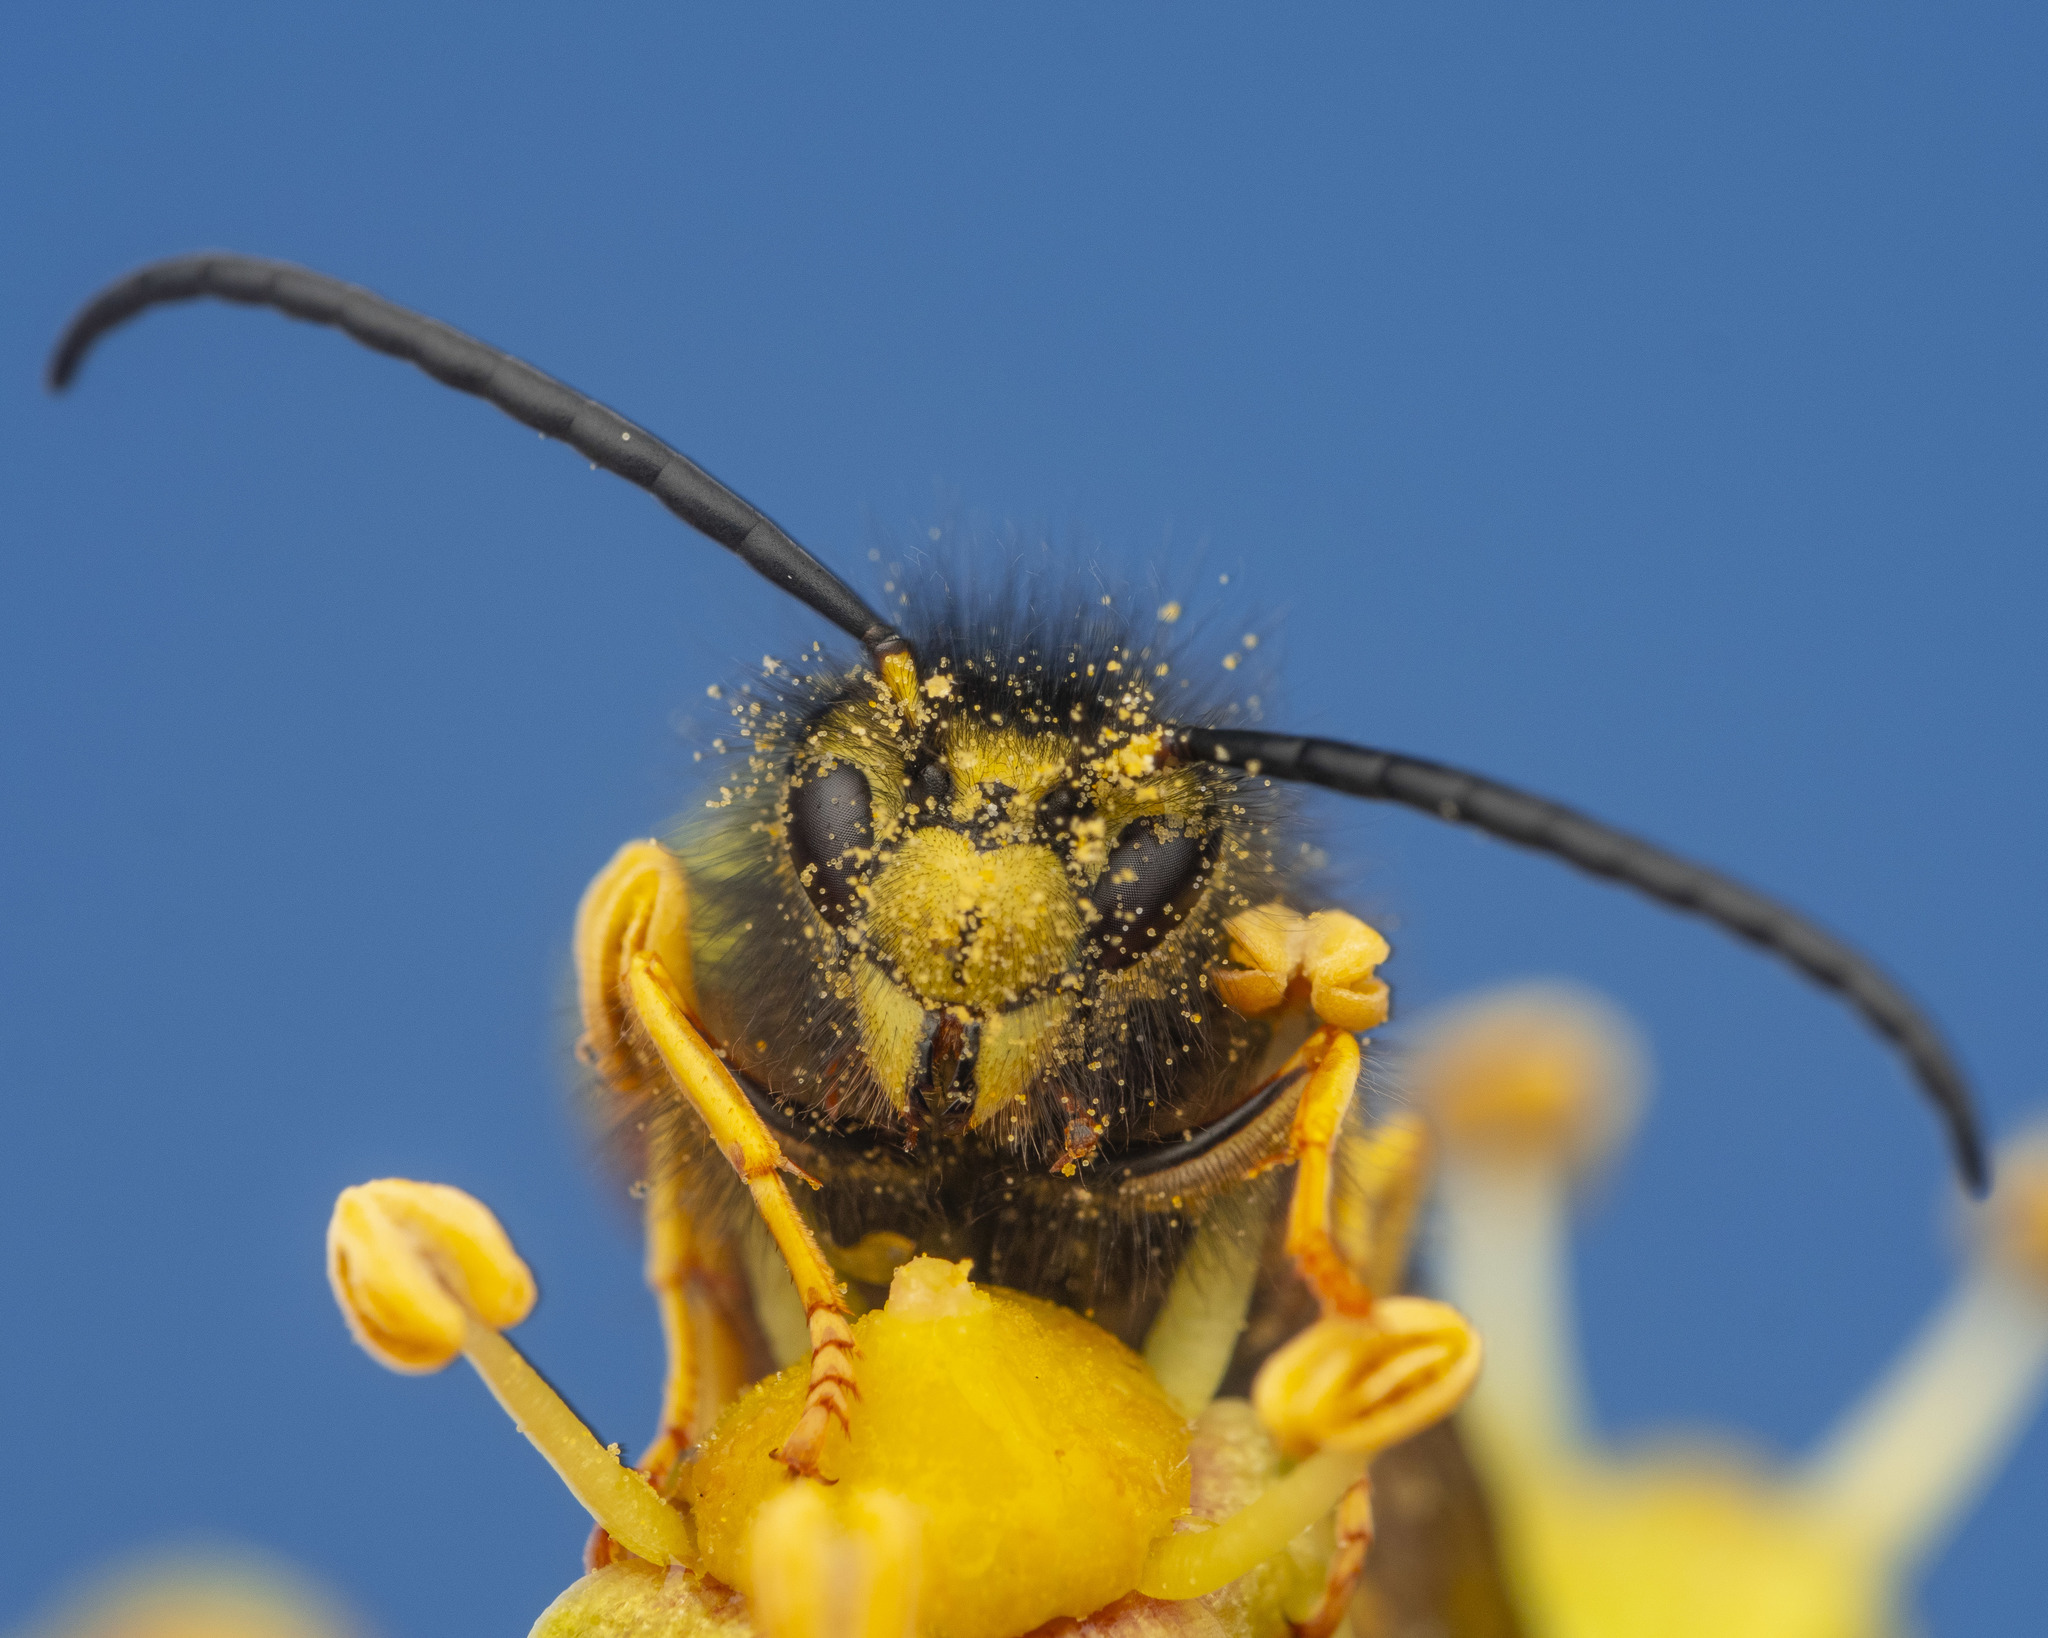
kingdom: Animalia
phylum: Arthropoda
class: Insecta
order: Hymenoptera
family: Vespidae
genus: Vespula
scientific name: Vespula germanica
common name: German wasp
